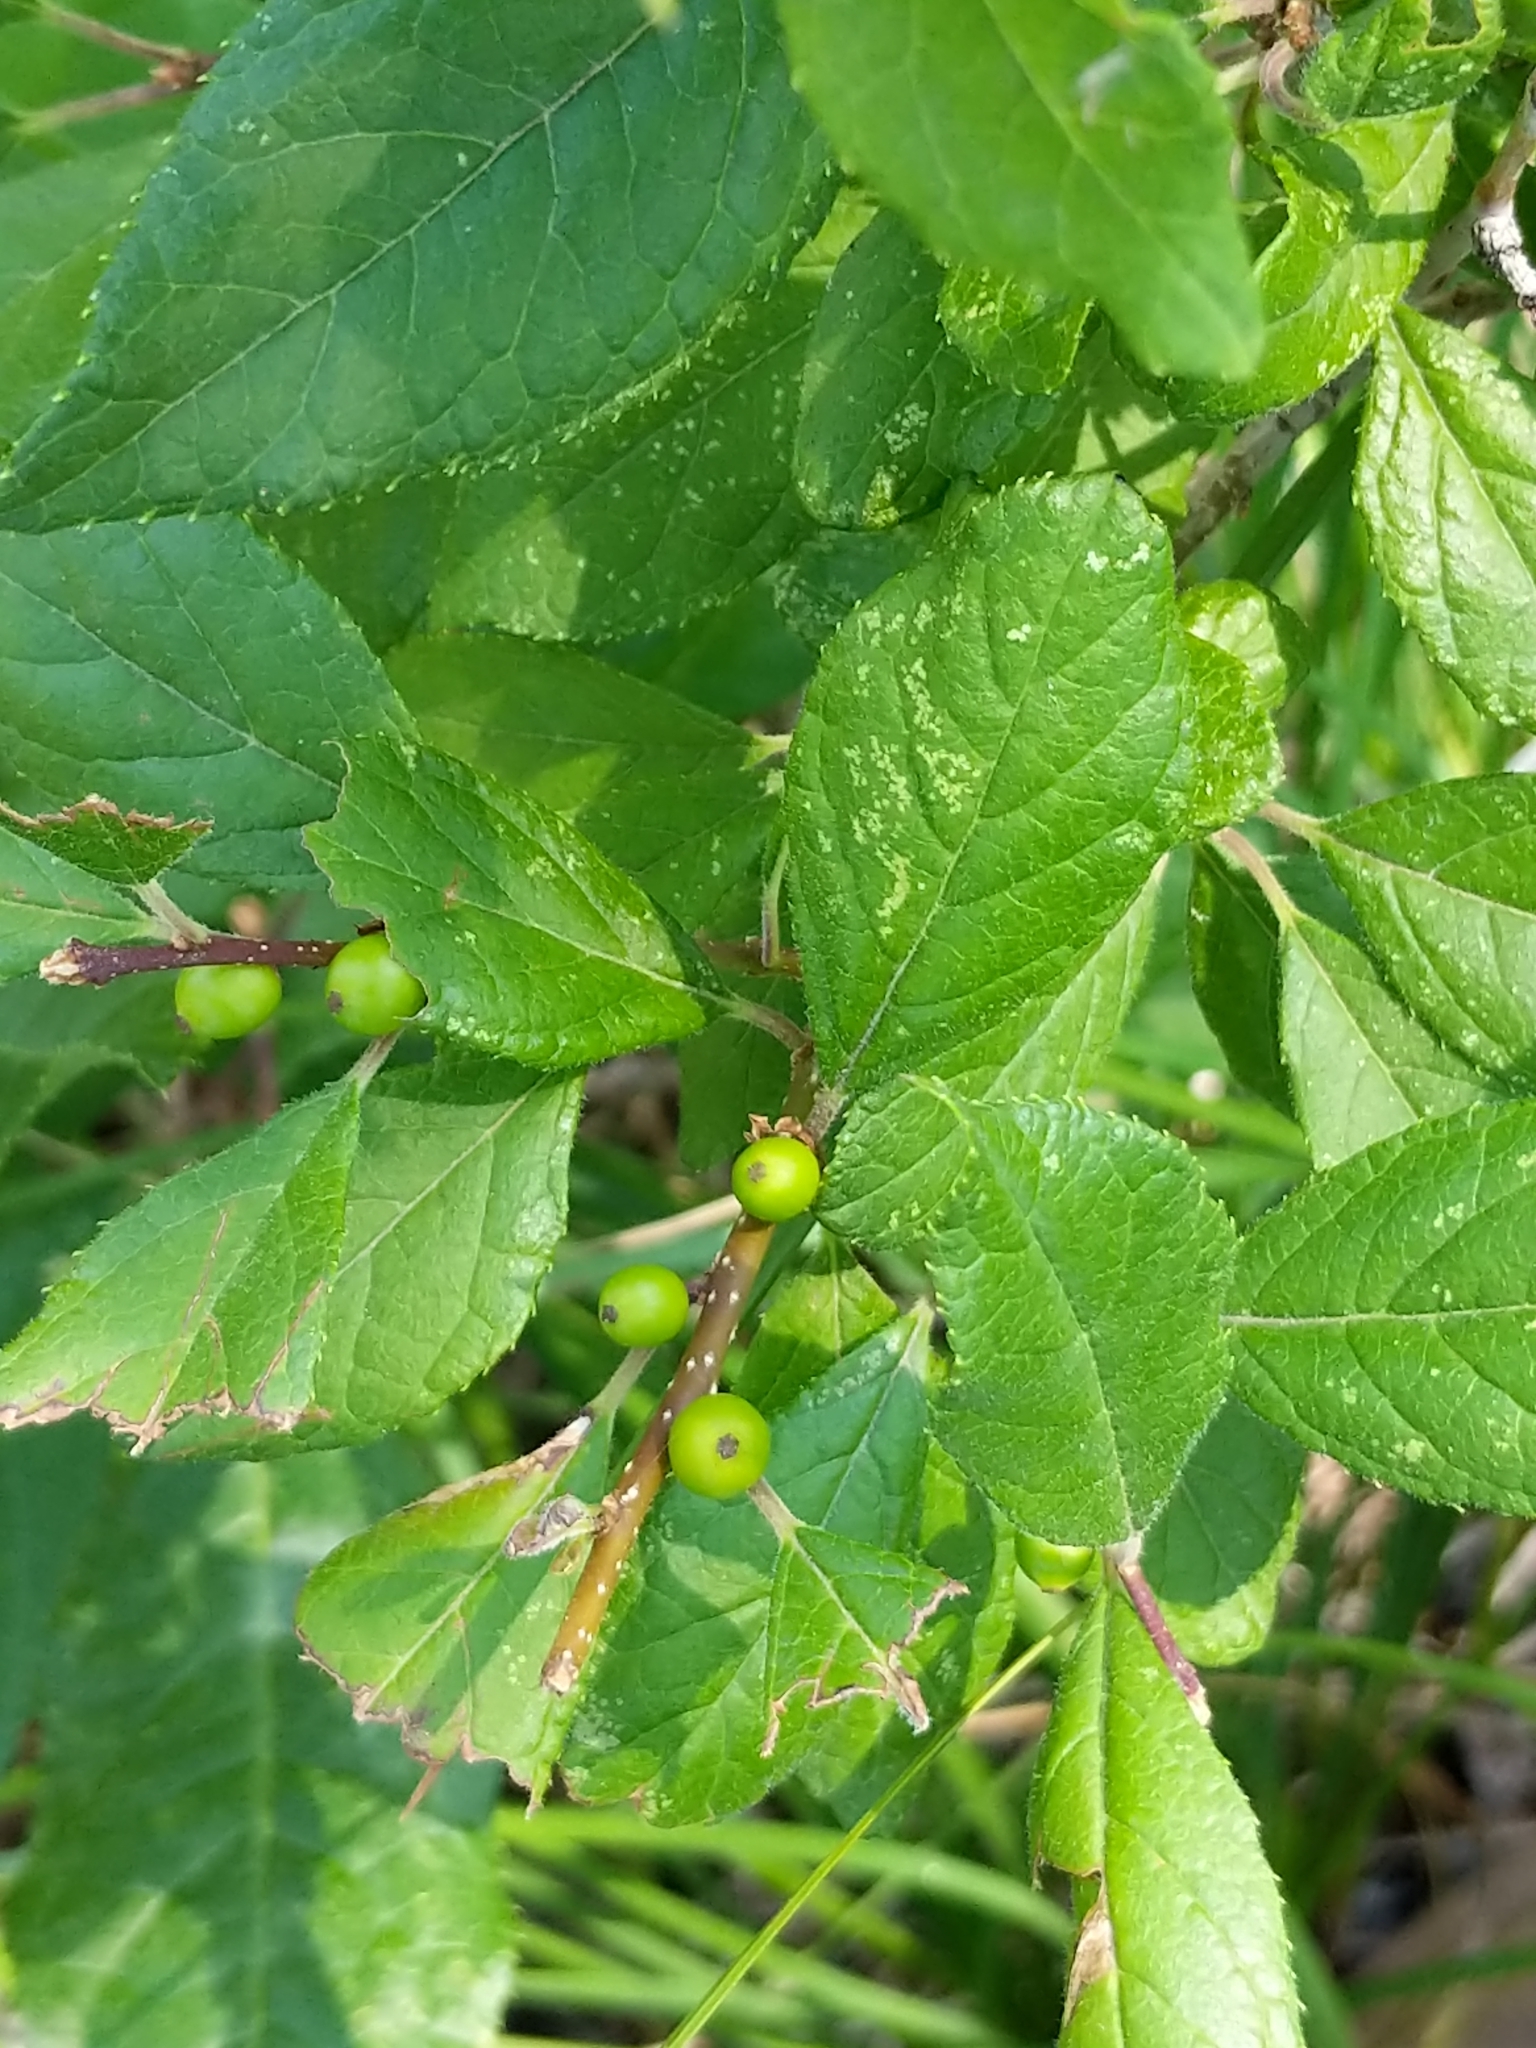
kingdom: Plantae
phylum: Tracheophyta
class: Magnoliopsida
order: Aquifoliales
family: Aquifoliaceae
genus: Ilex
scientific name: Ilex verticillata
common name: Virginia winterberry
